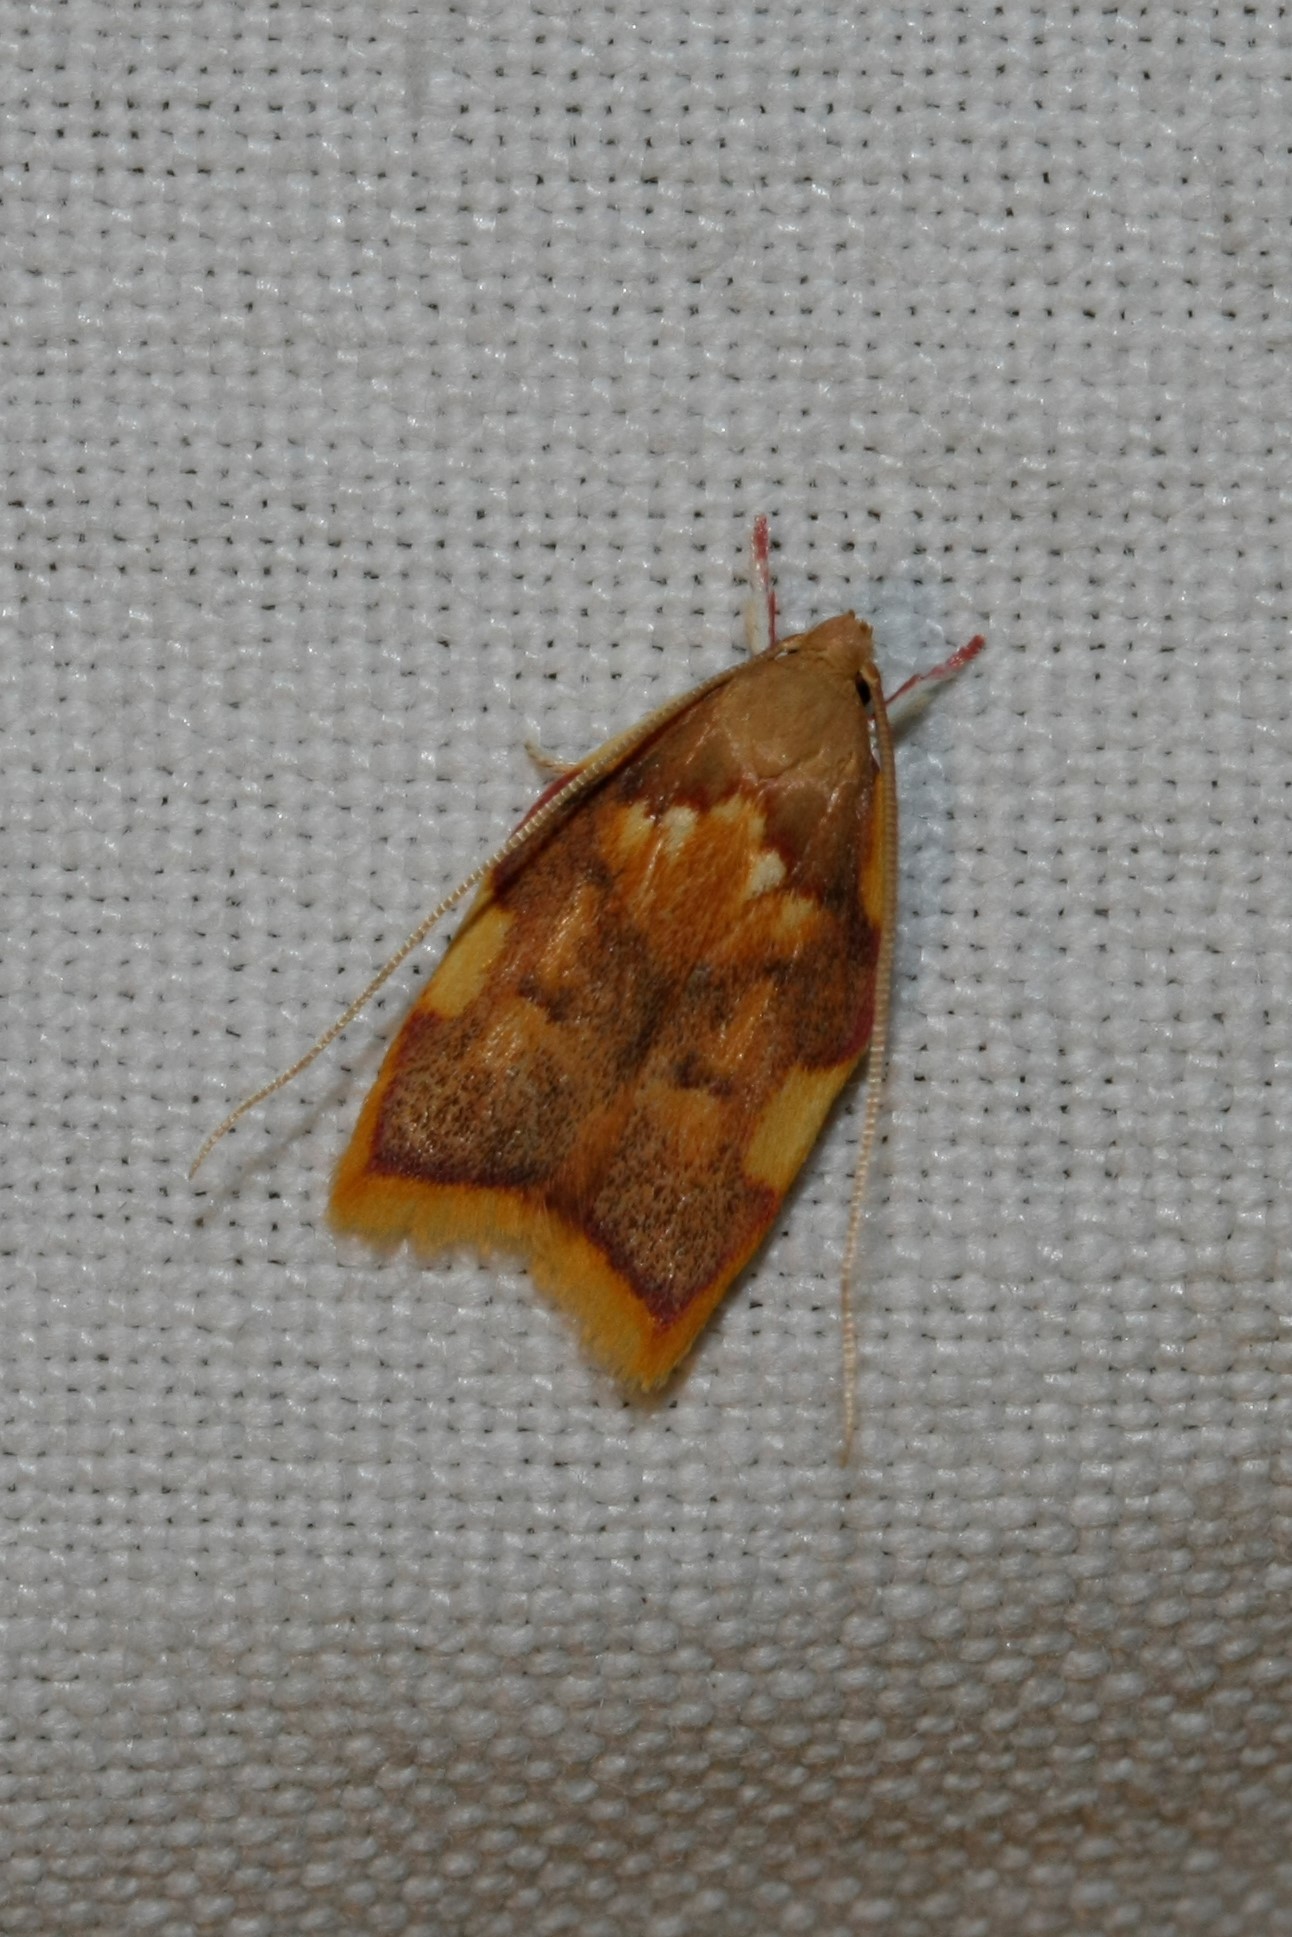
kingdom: Animalia
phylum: Arthropoda
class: Insecta
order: Lepidoptera
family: Peleopodidae
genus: Carcina
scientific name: Carcina quercana
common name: Moth
